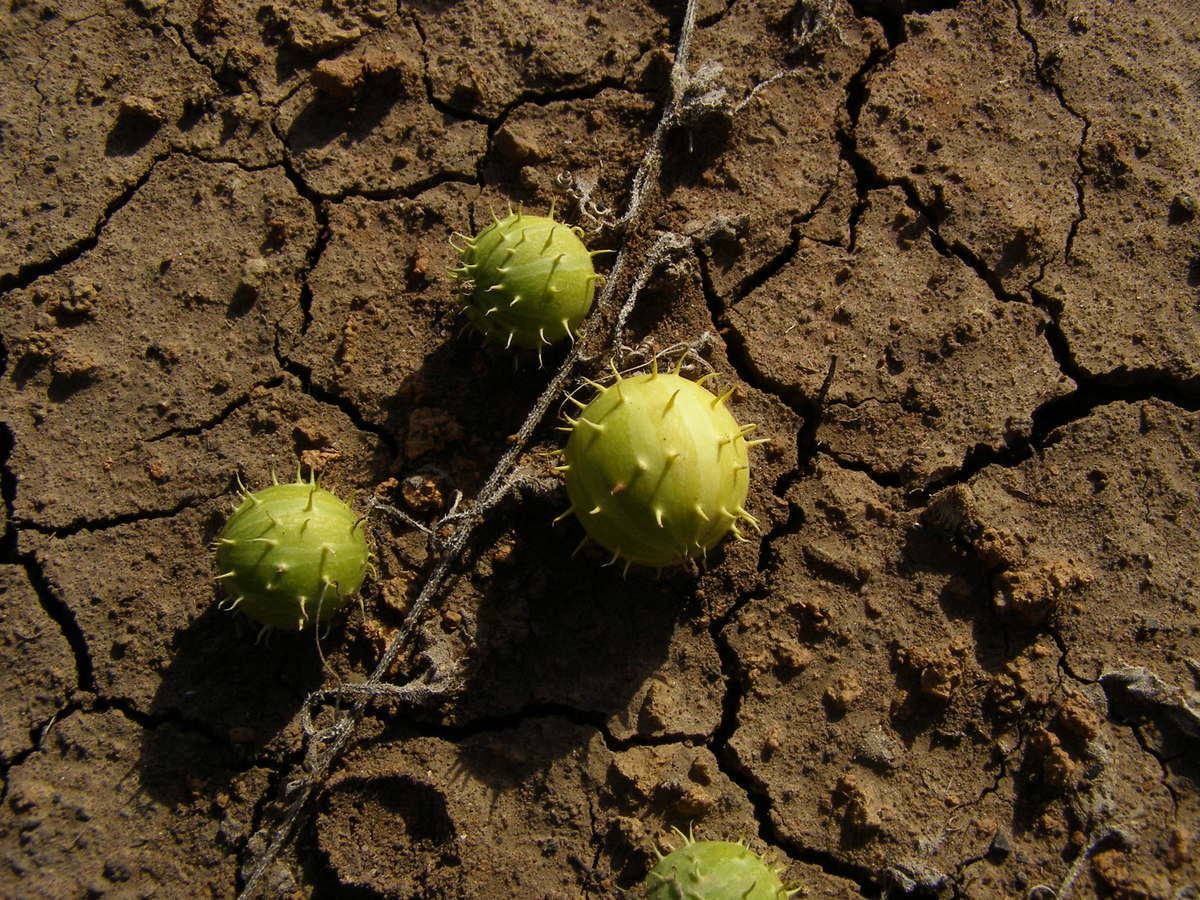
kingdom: Plantae
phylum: Tracheophyta
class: Magnoliopsida
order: Cucurbitales
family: Cucurbitaceae
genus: Cucumis
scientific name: Cucumis myriocarpus
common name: Gooseberry cucumber
